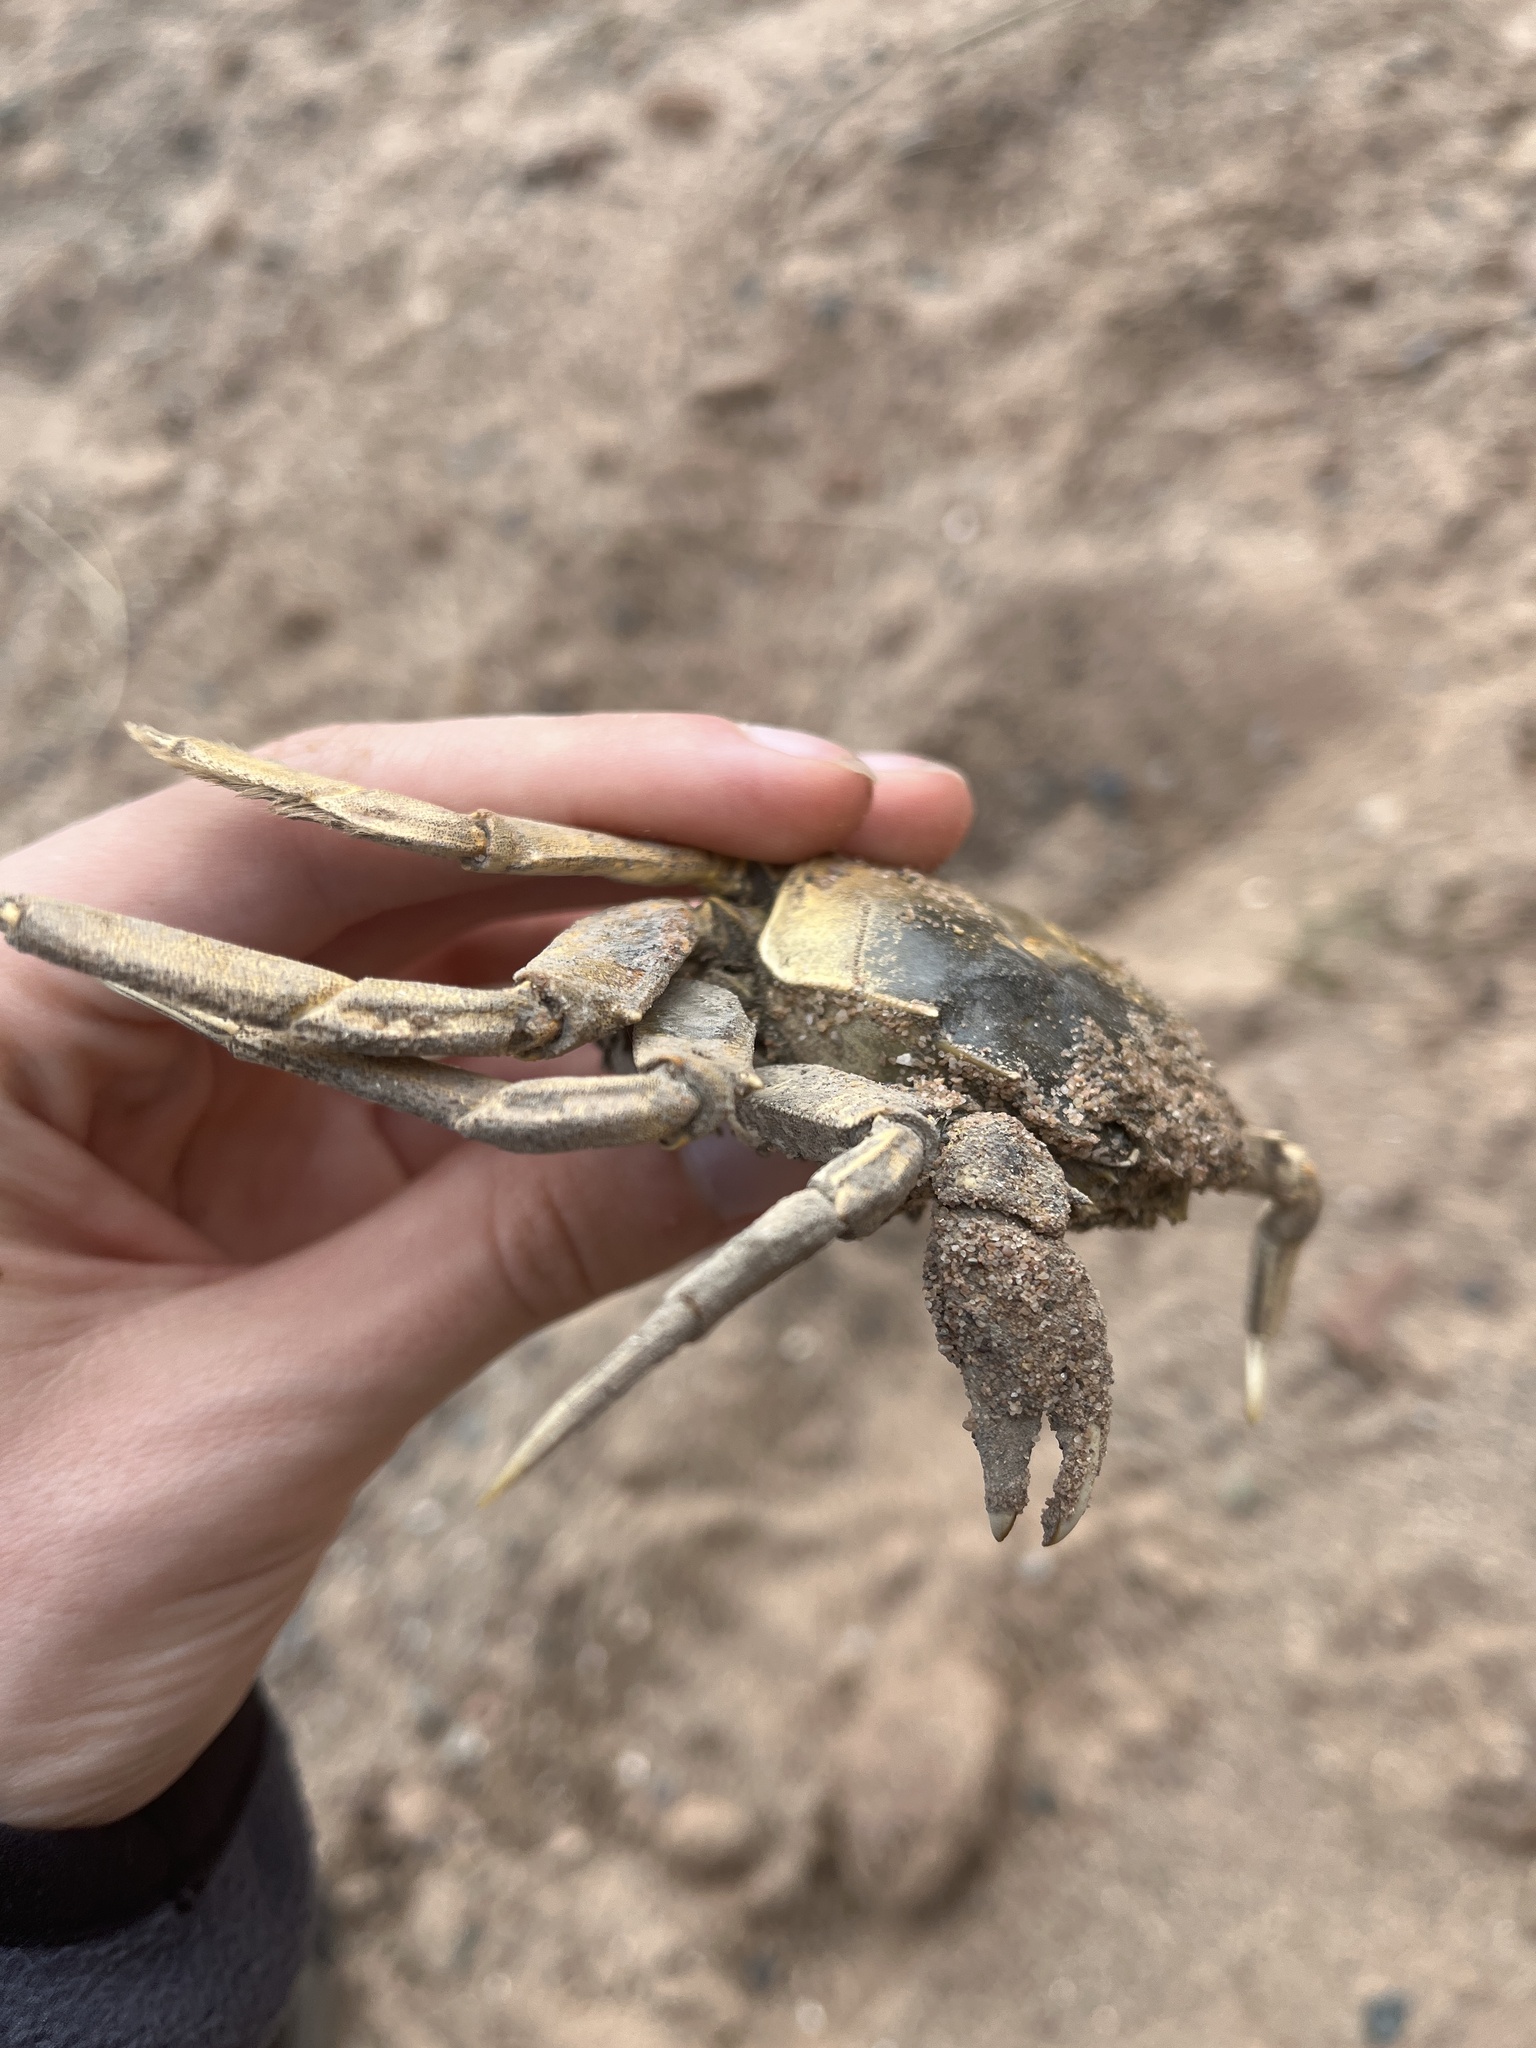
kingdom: Animalia
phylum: Arthropoda
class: Malacostraca
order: Decapoda
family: Varunidae
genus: Eriocheir
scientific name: Eriocheir sinensis
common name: Chinese mitten crab
